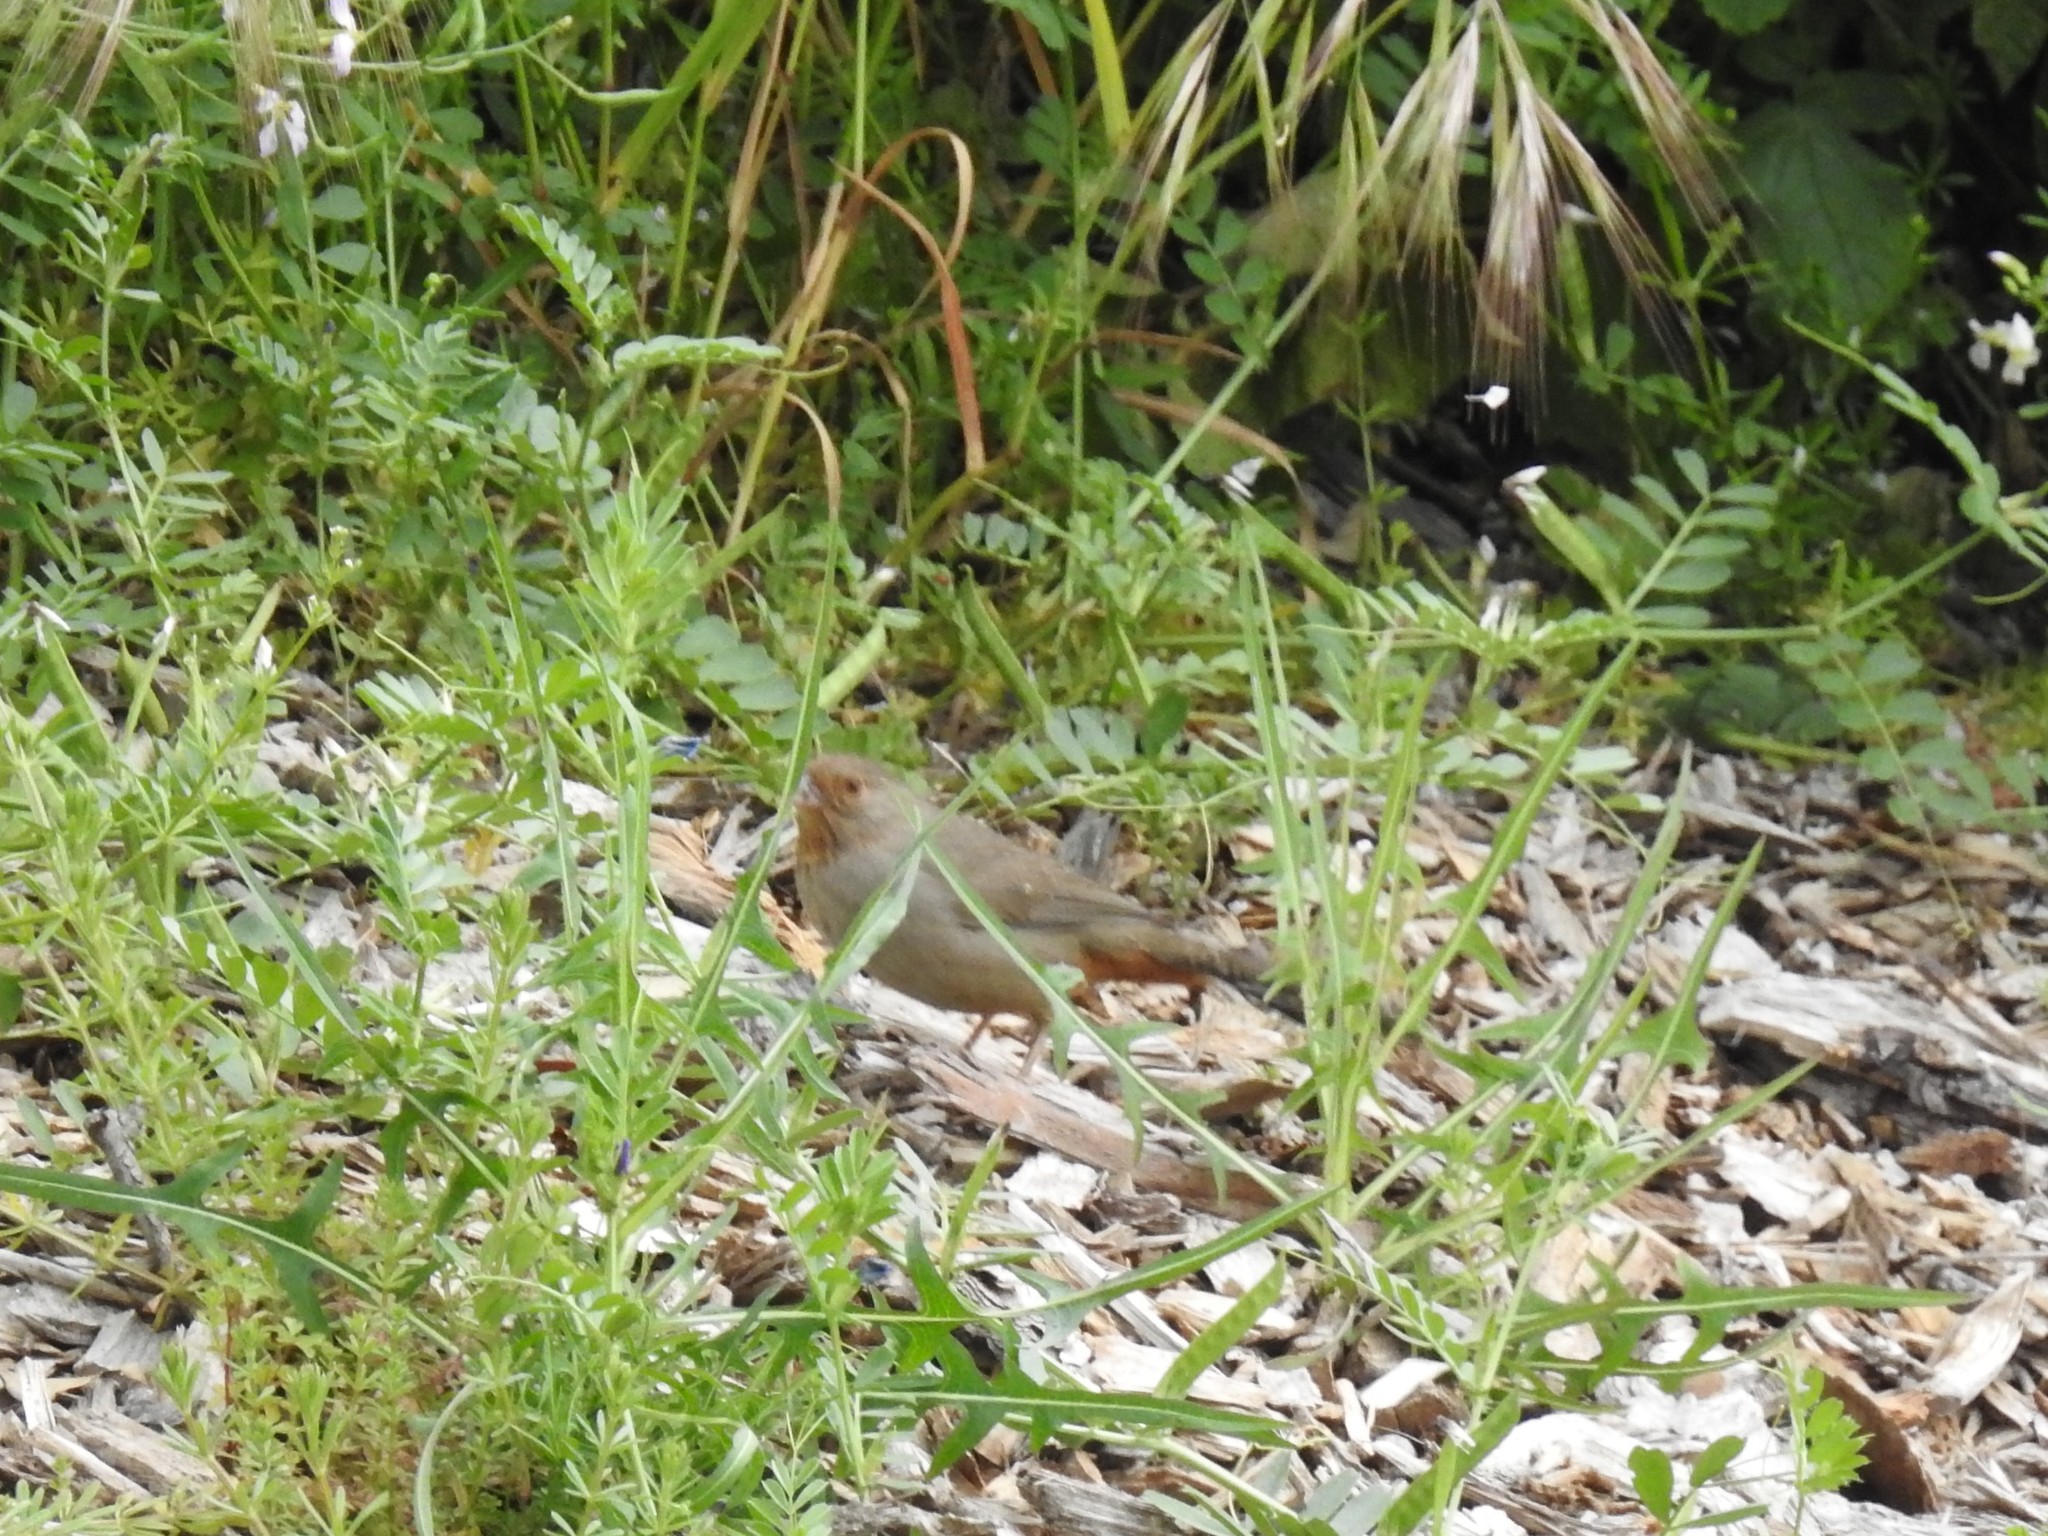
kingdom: Animalia
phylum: Chordata
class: Aves
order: Passeriformes
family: Passerellidae
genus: Melozone
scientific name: Melozone crissalis
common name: California towhee
